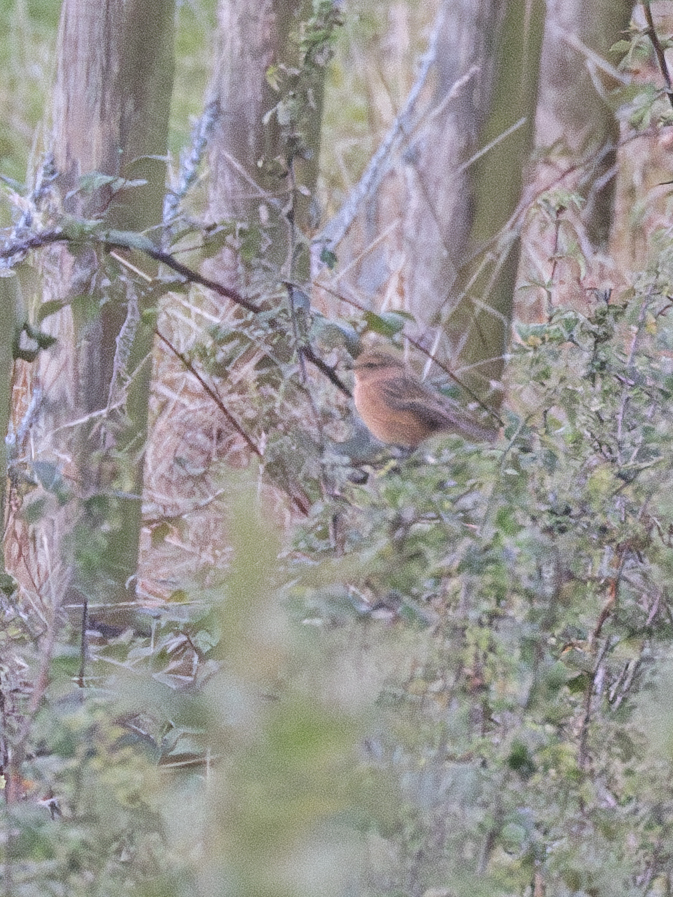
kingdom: Animalia
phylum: Chordata
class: Aves
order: Passeriformes
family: Muscicapidae
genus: Saxicola
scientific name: Saxicola rubicola
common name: European stonechat
